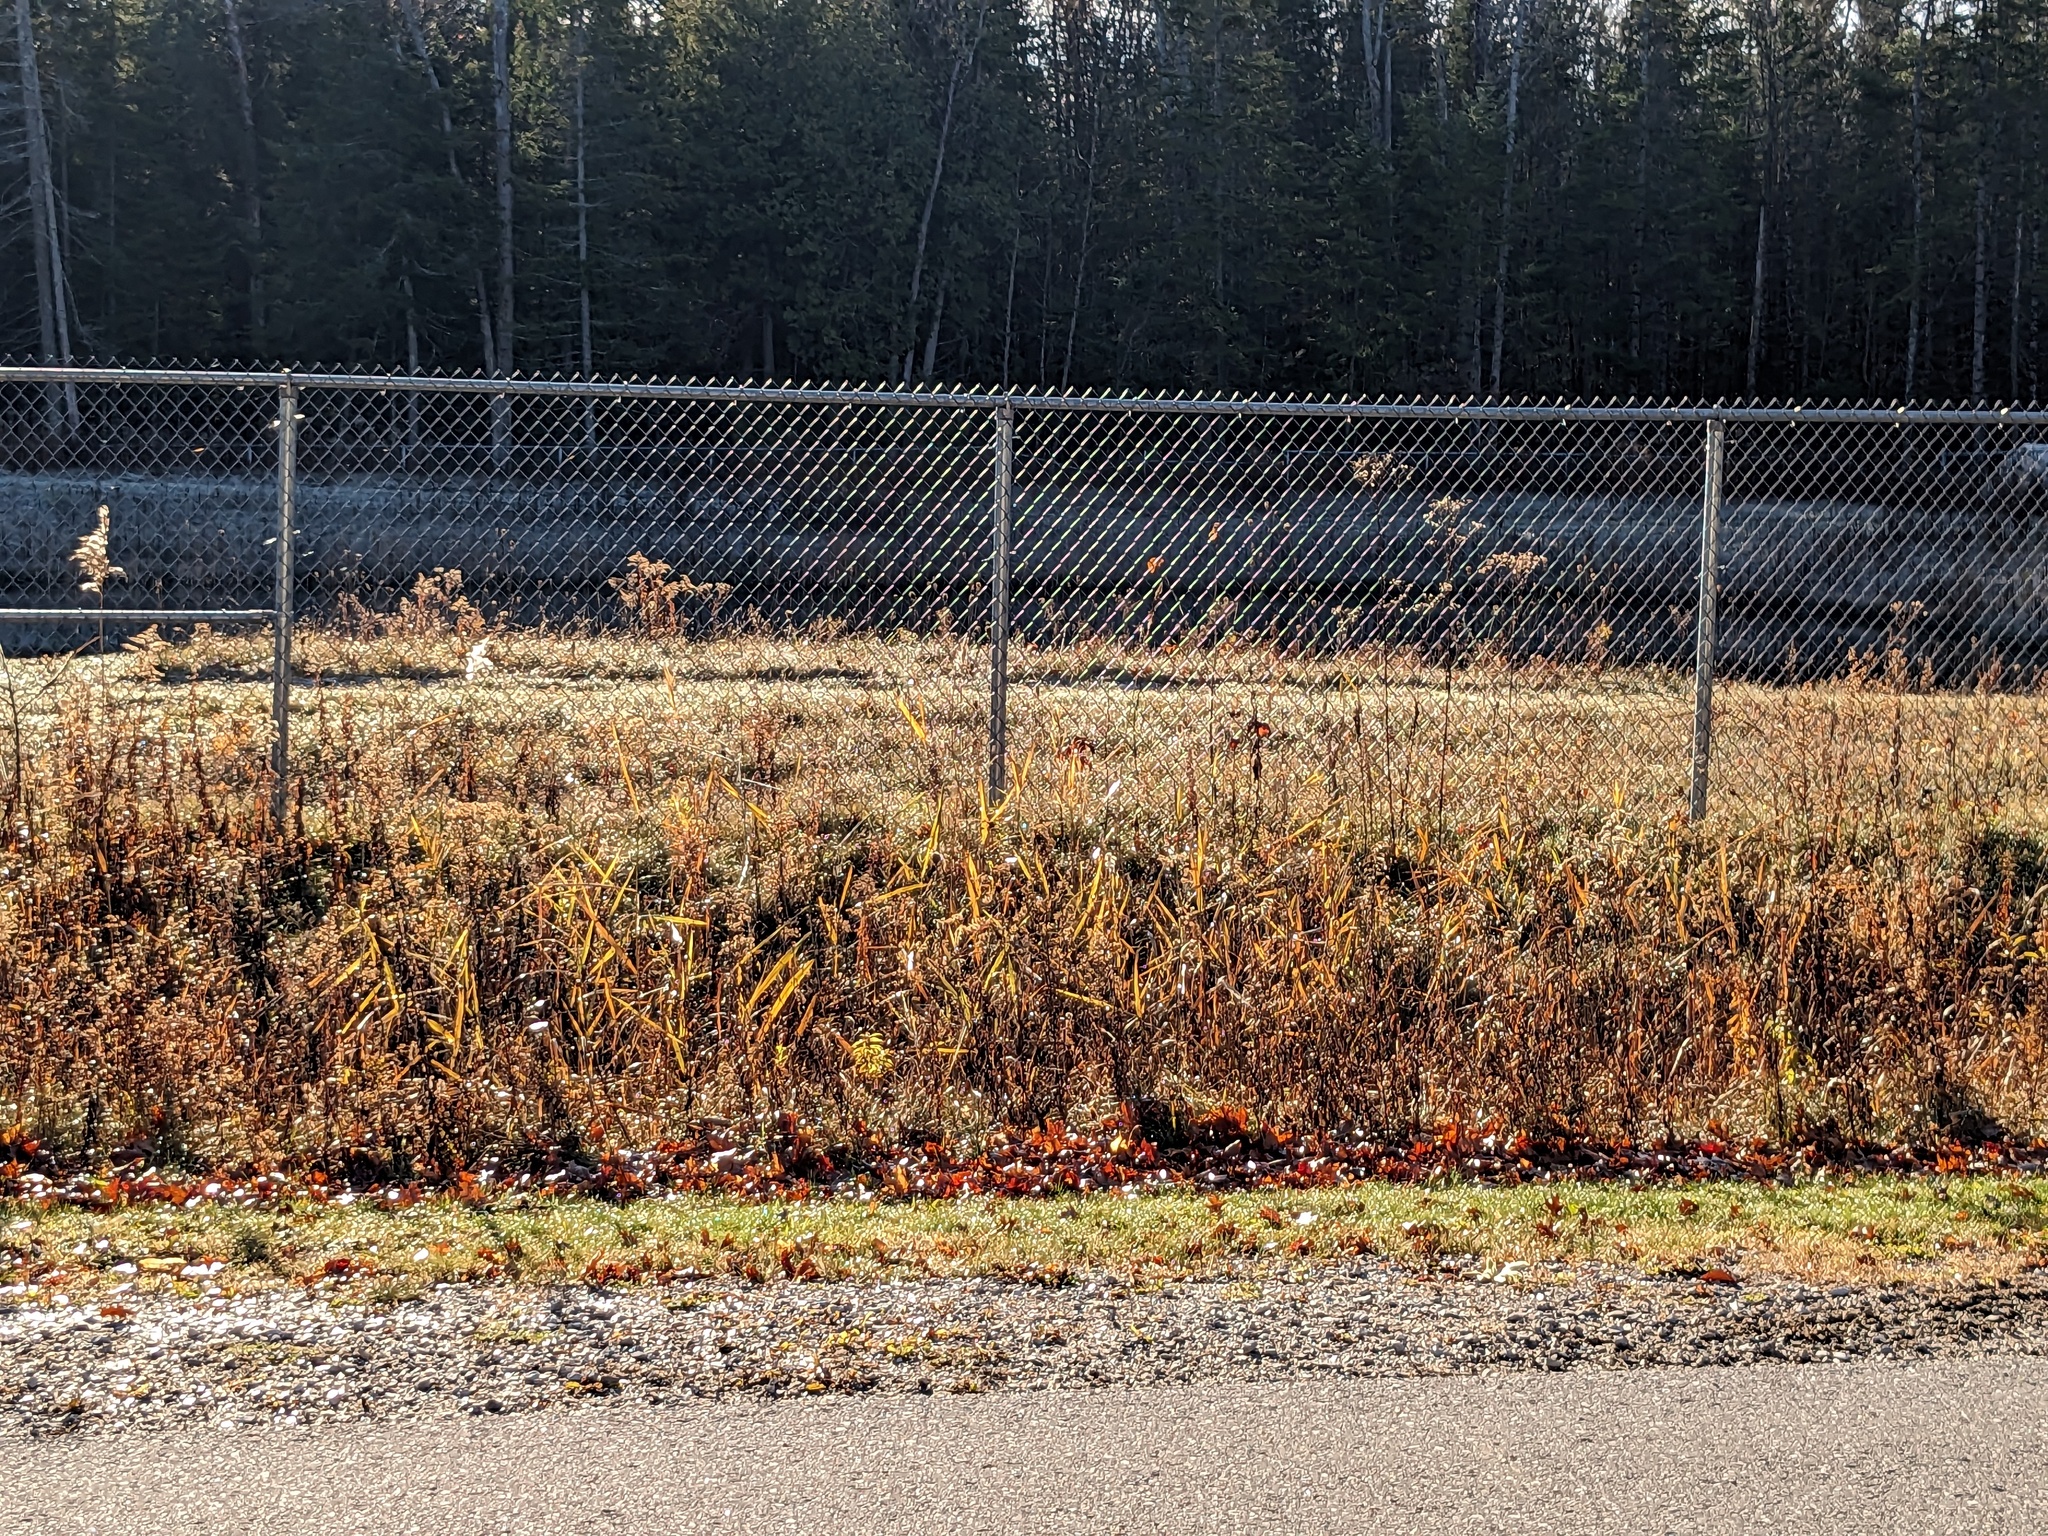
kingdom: Plantae
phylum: Tracheophyta
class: Liliopsida
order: Poales
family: Poaceae
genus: Phragmites
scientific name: Phragmites australis
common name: Common reed
